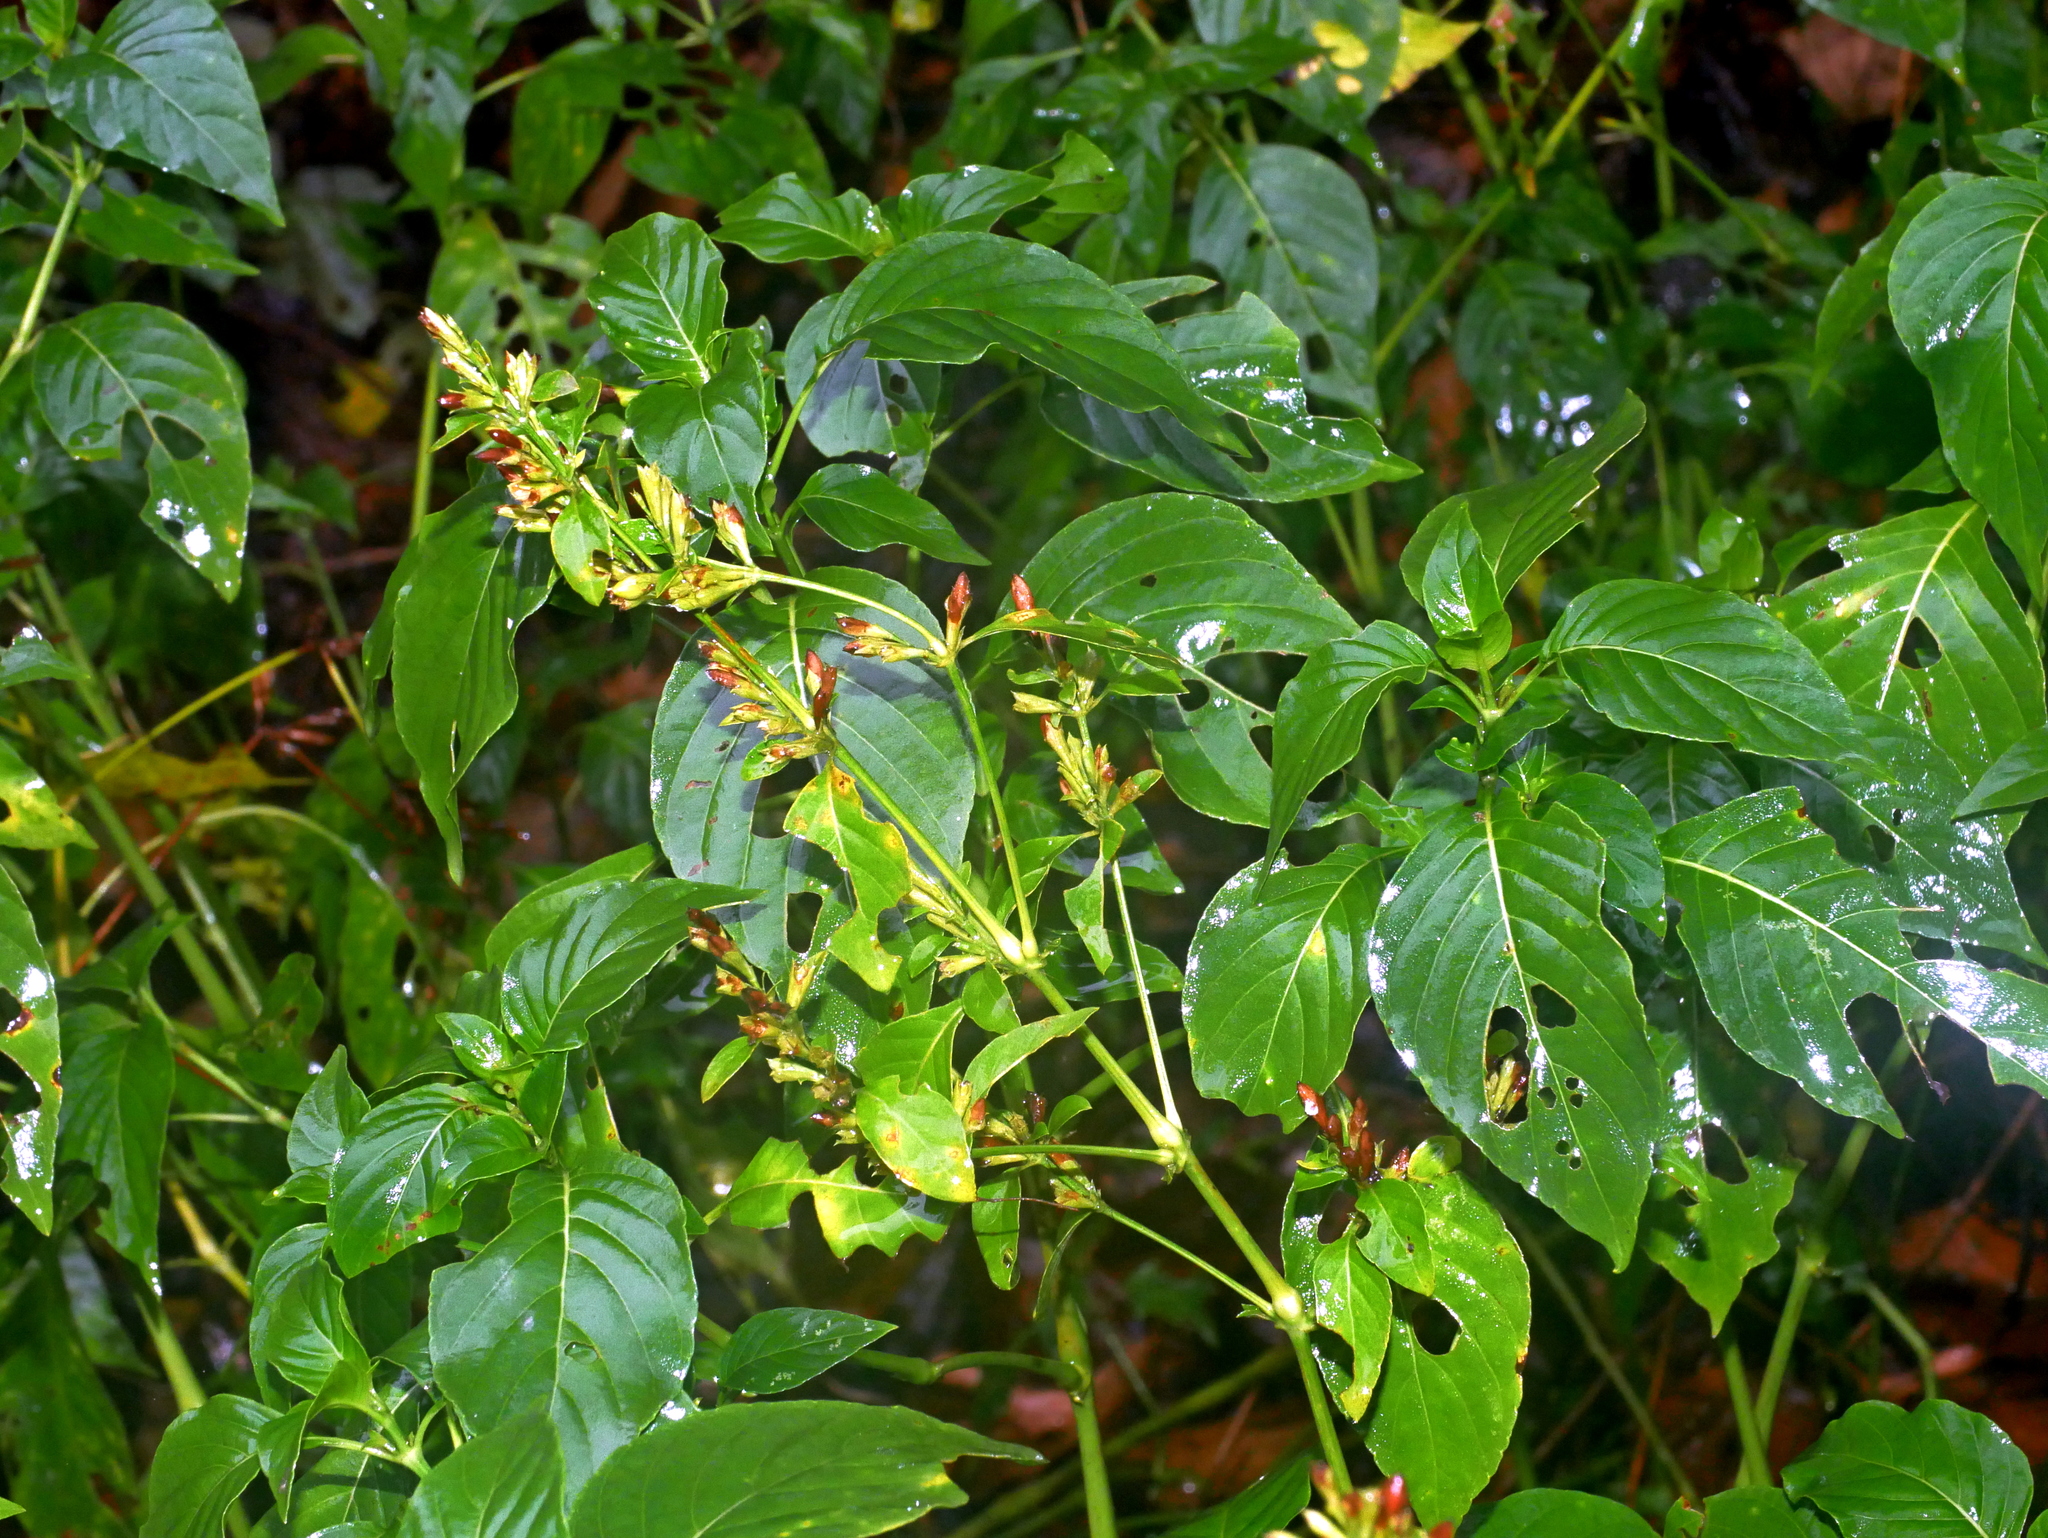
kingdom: Plantae
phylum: Tracheophyta
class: Magnoliopsida
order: Lamiales
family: Acanthaceae
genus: Hypoestes
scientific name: Hypoestes purpurea
